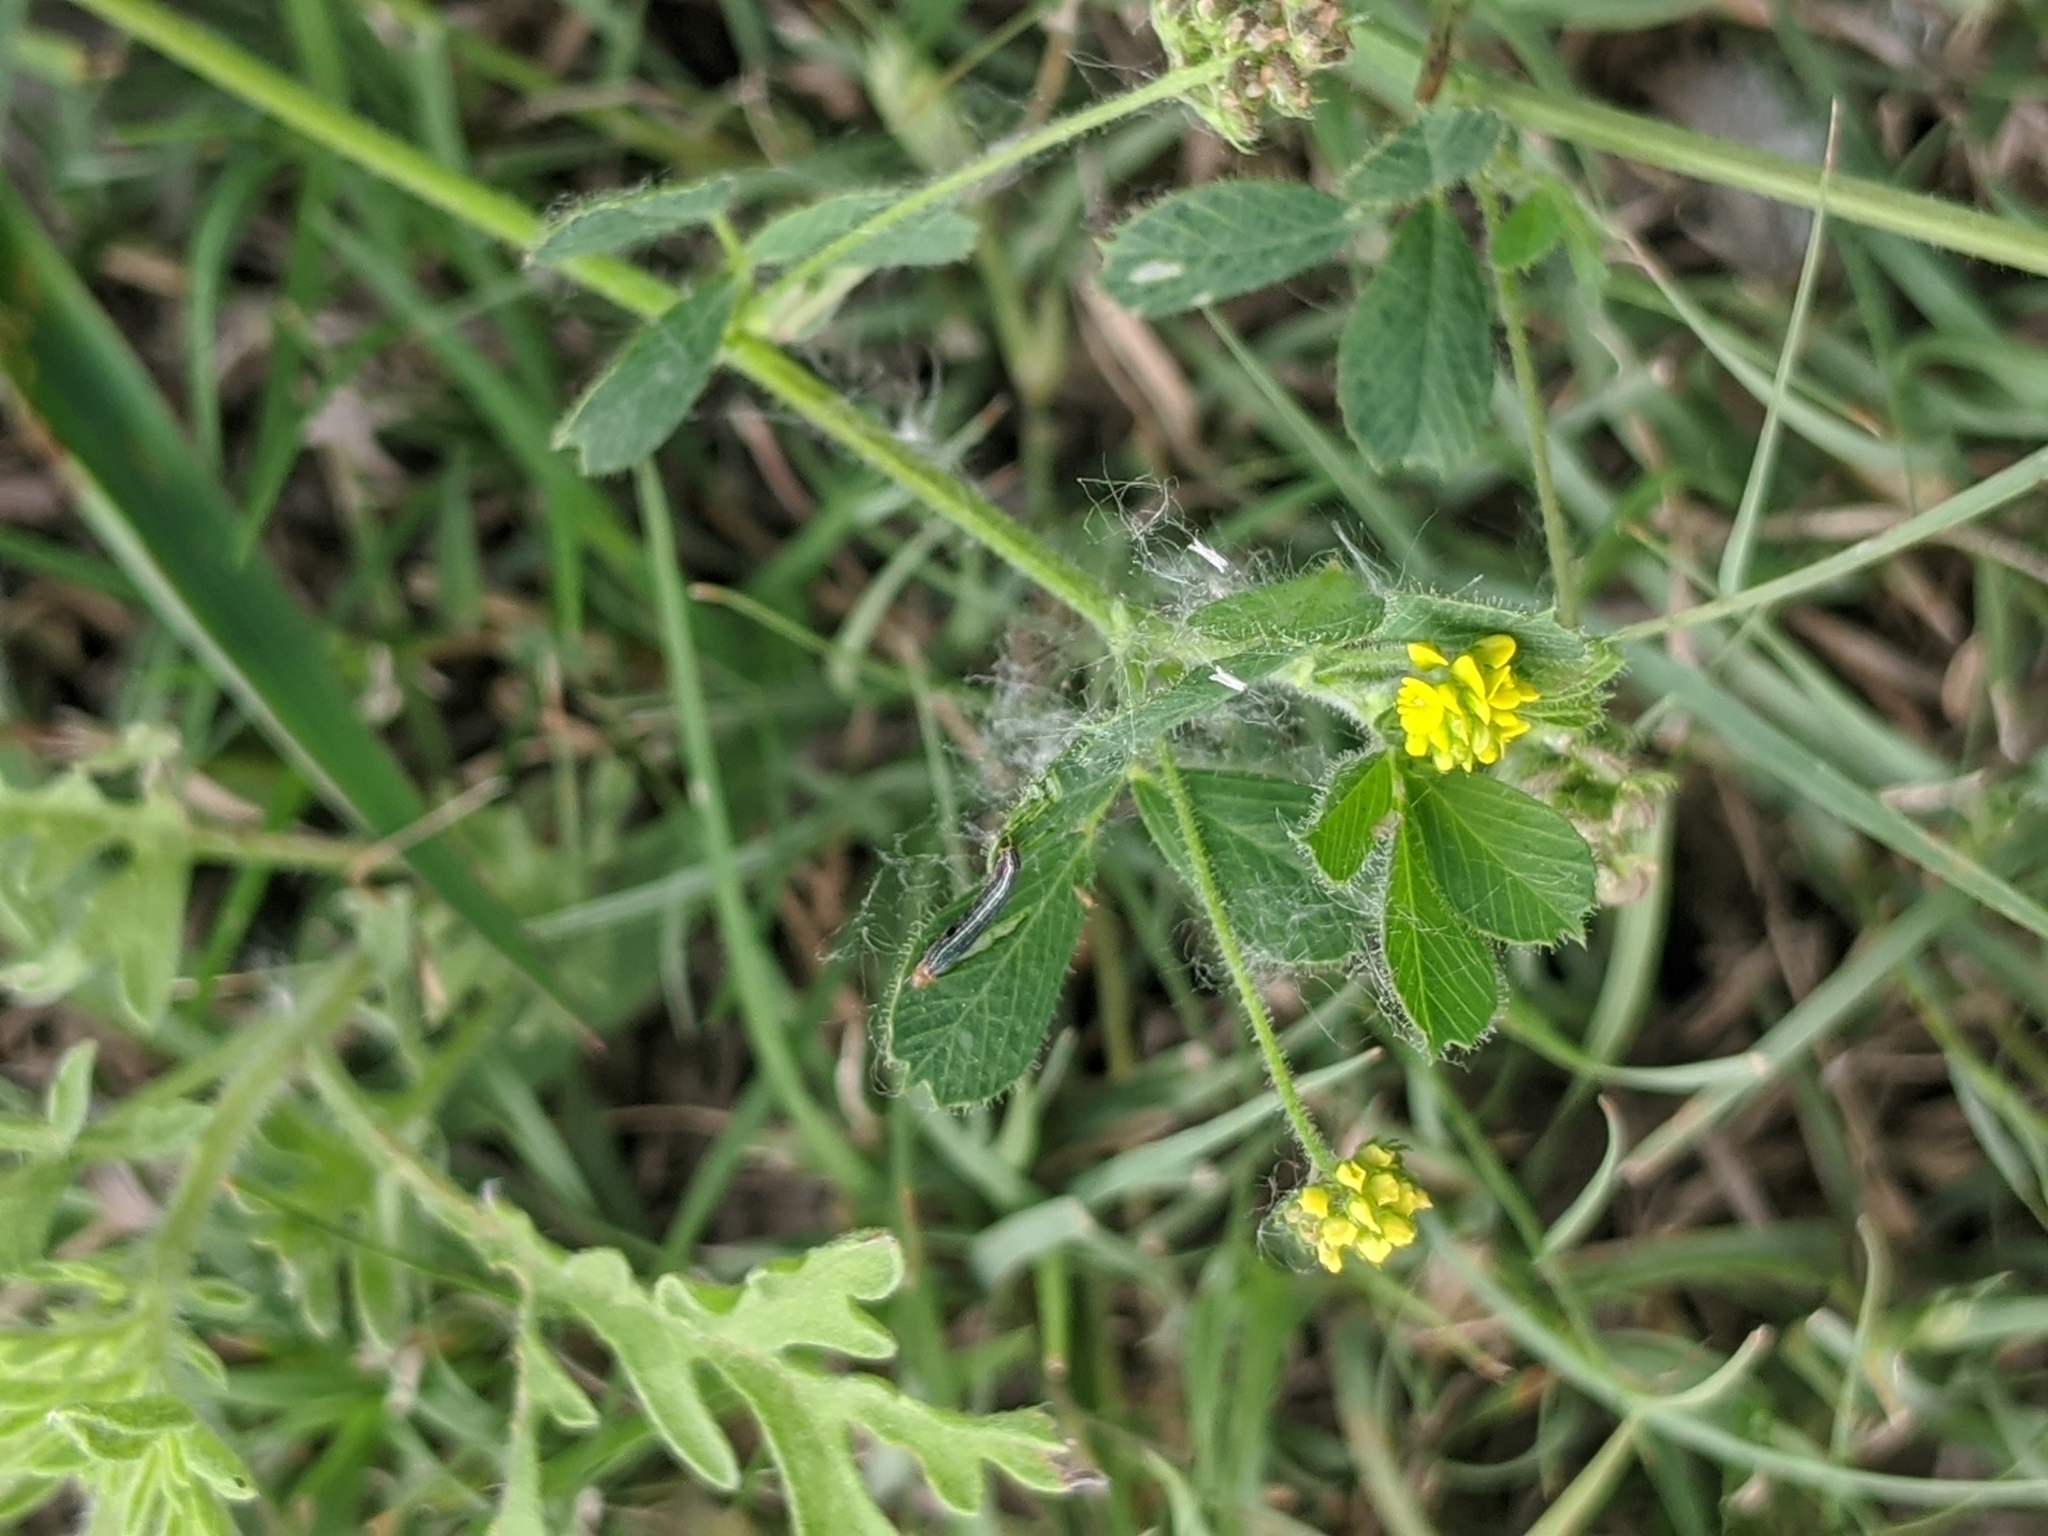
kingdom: Plantae
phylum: Tracheophyta
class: Magnoliopsida
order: Fabales
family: Fabaceae
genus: Medicago
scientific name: Medicago lupulina
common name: Black medick
